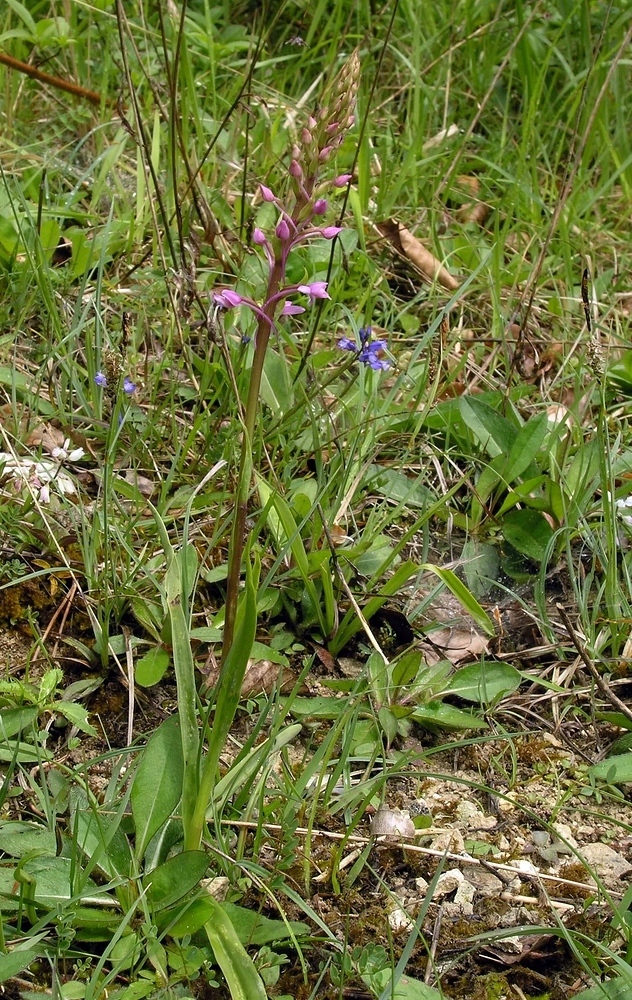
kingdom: Plantae
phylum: Tracheophyta
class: Liliopsida
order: Asparagales
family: Orchidaceae
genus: Gymnadenia
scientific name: Gymnadenia conopsea
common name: Fragrant orchid
